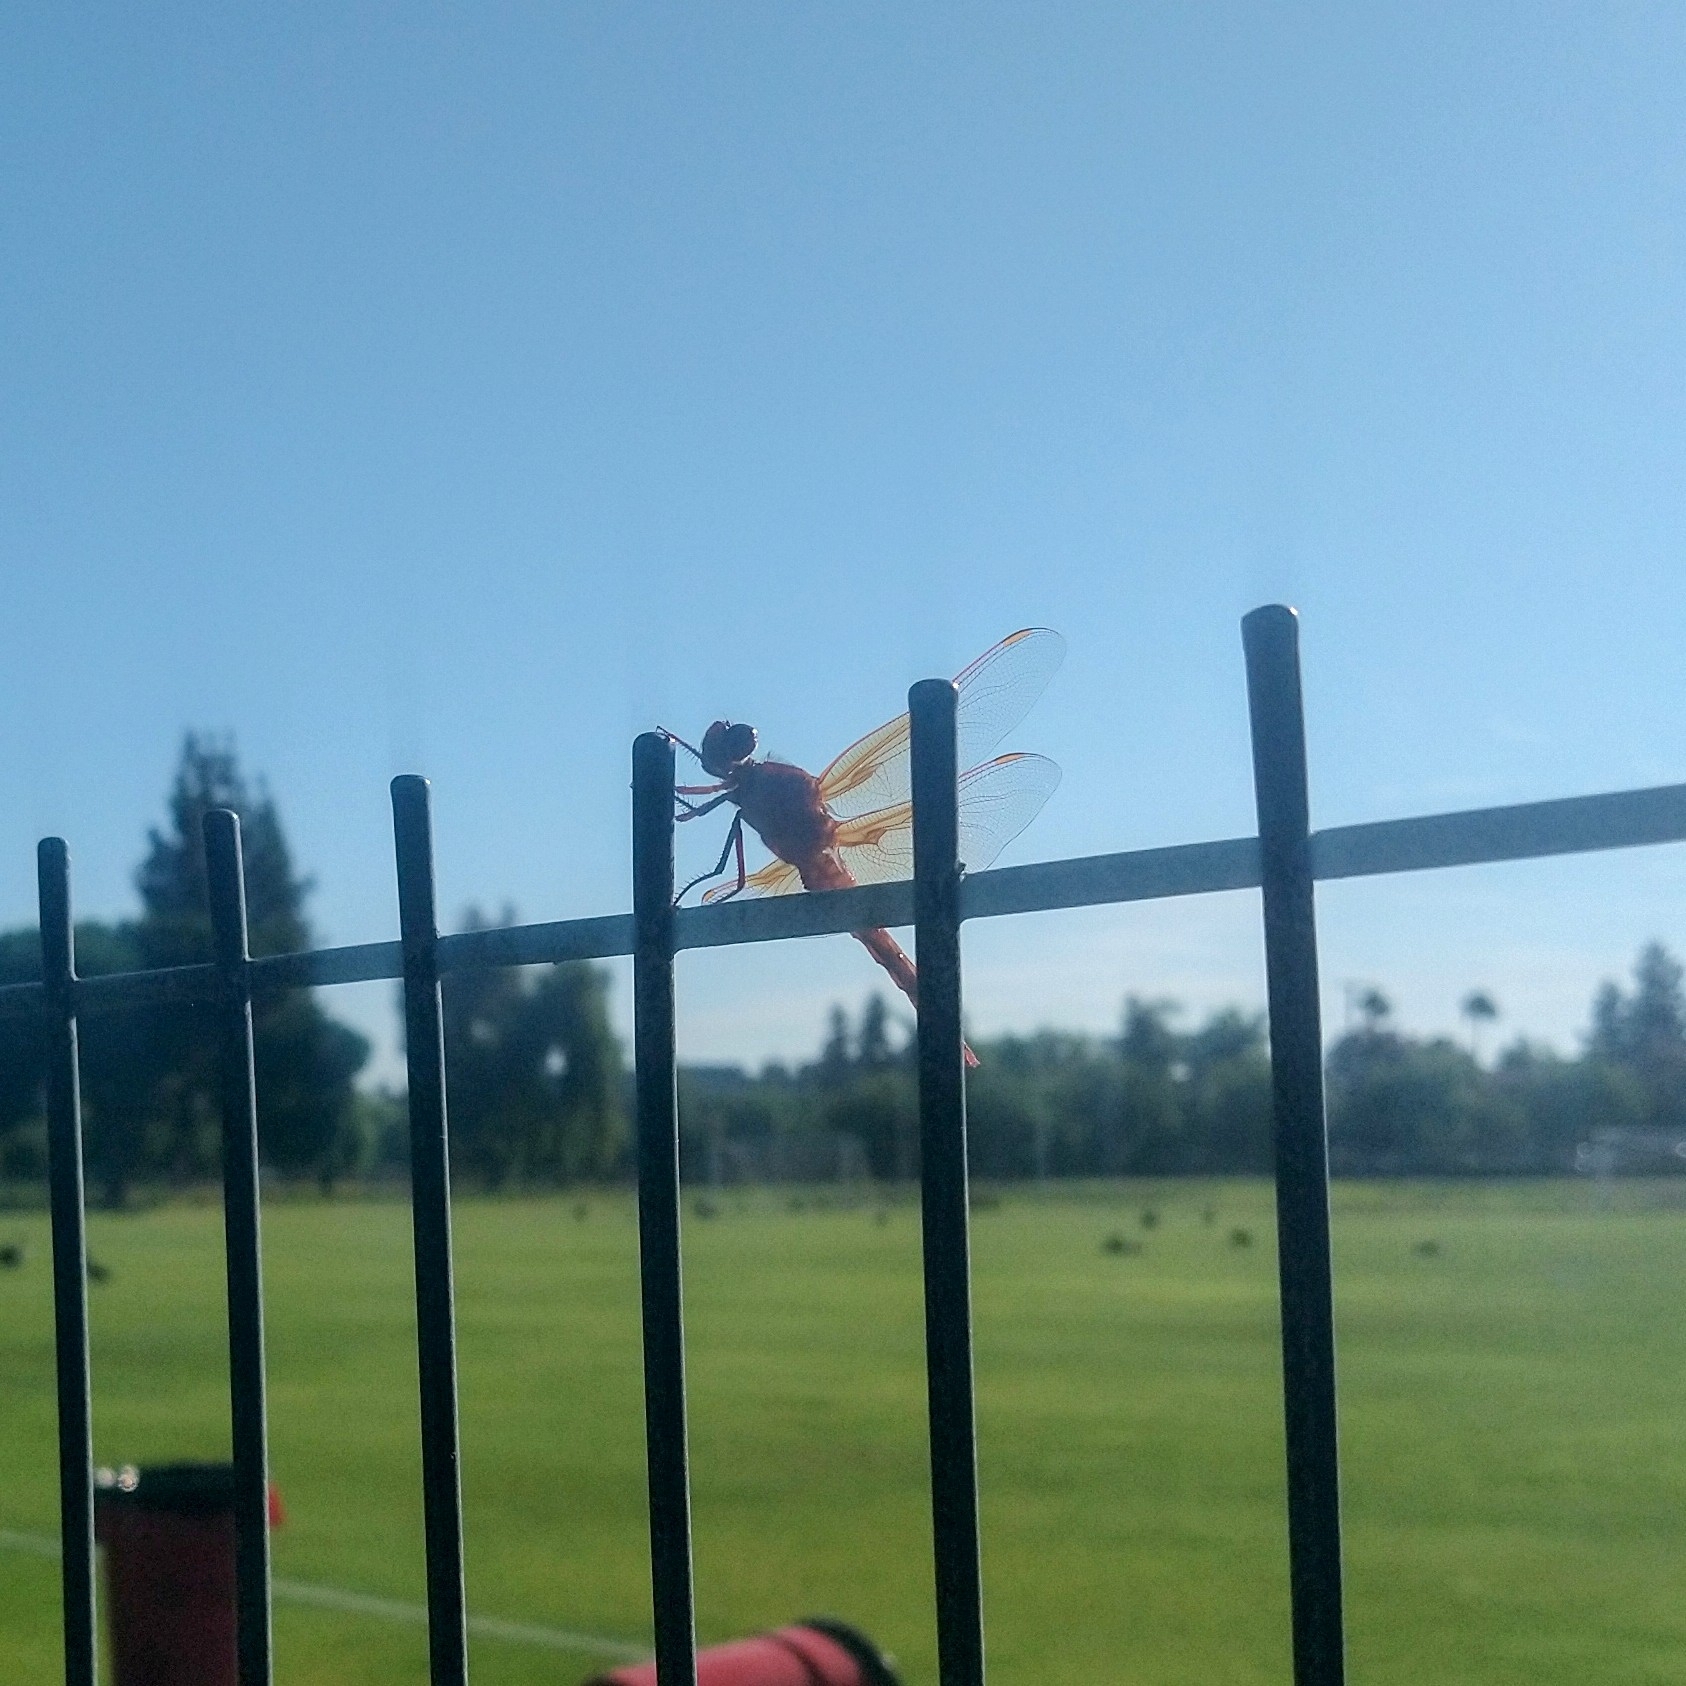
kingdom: Animalia
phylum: Arthropoda
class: Insecta
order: Odonata
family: Libellulidae
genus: Libellula
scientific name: Libellula saturata
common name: Flame skimmer
